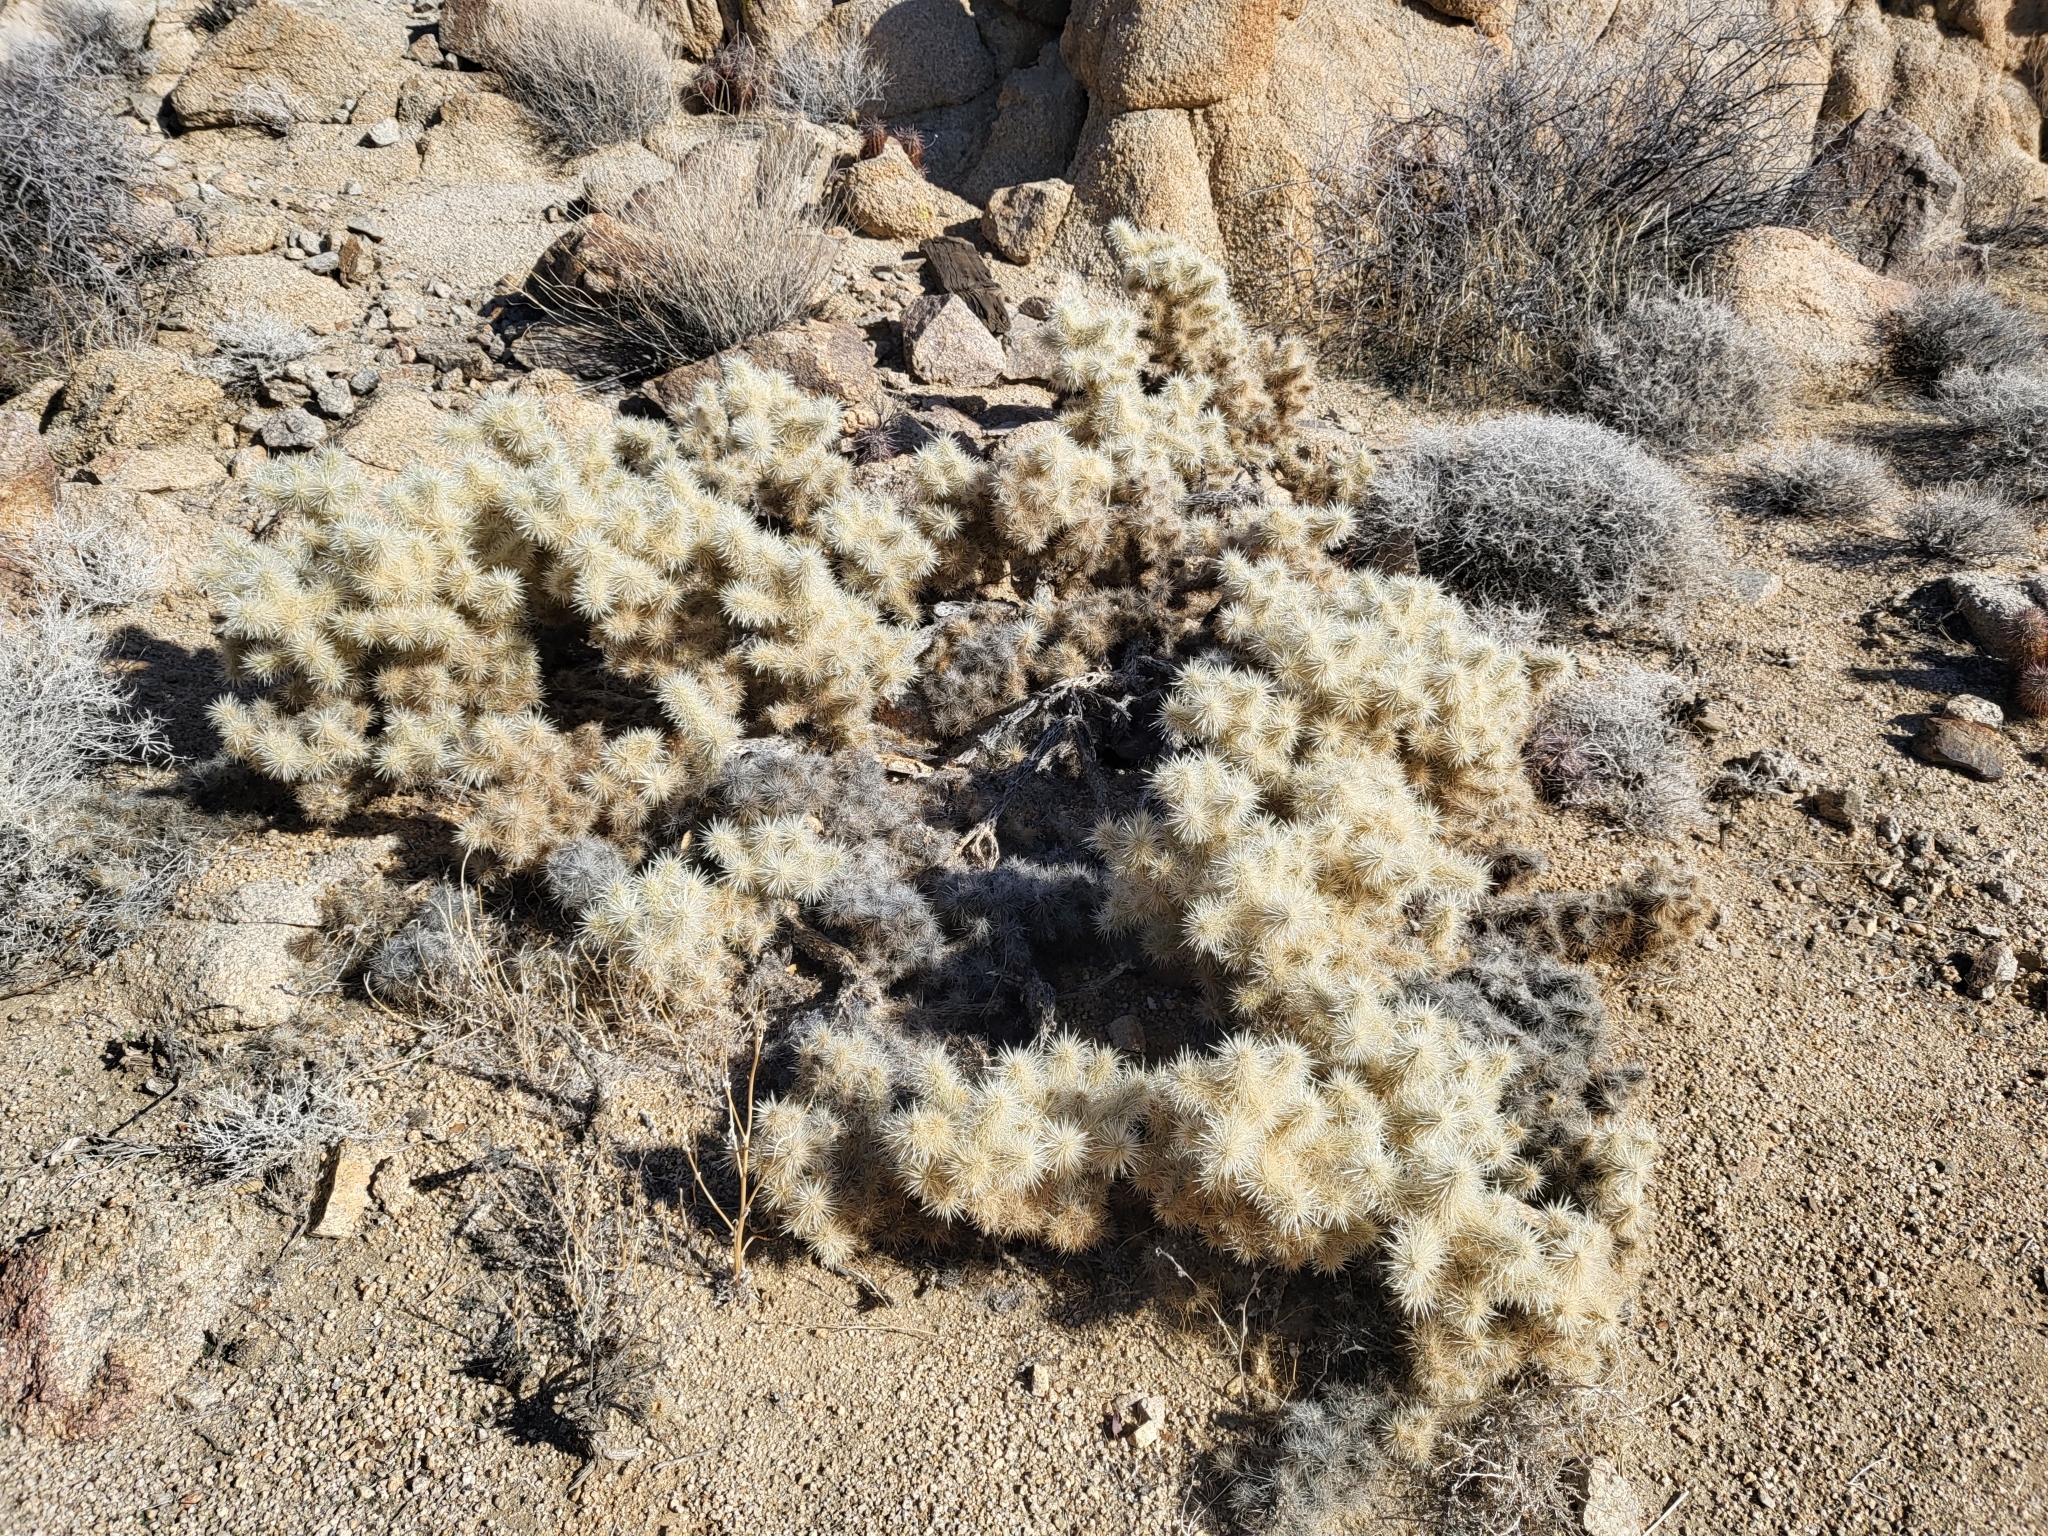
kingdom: Plantae
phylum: Tracheophyta
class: Magnoliopsida
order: Caryophyllales
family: Cactaceae
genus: Cylindropuntia
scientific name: Cylindropuntia chuckwallensis
